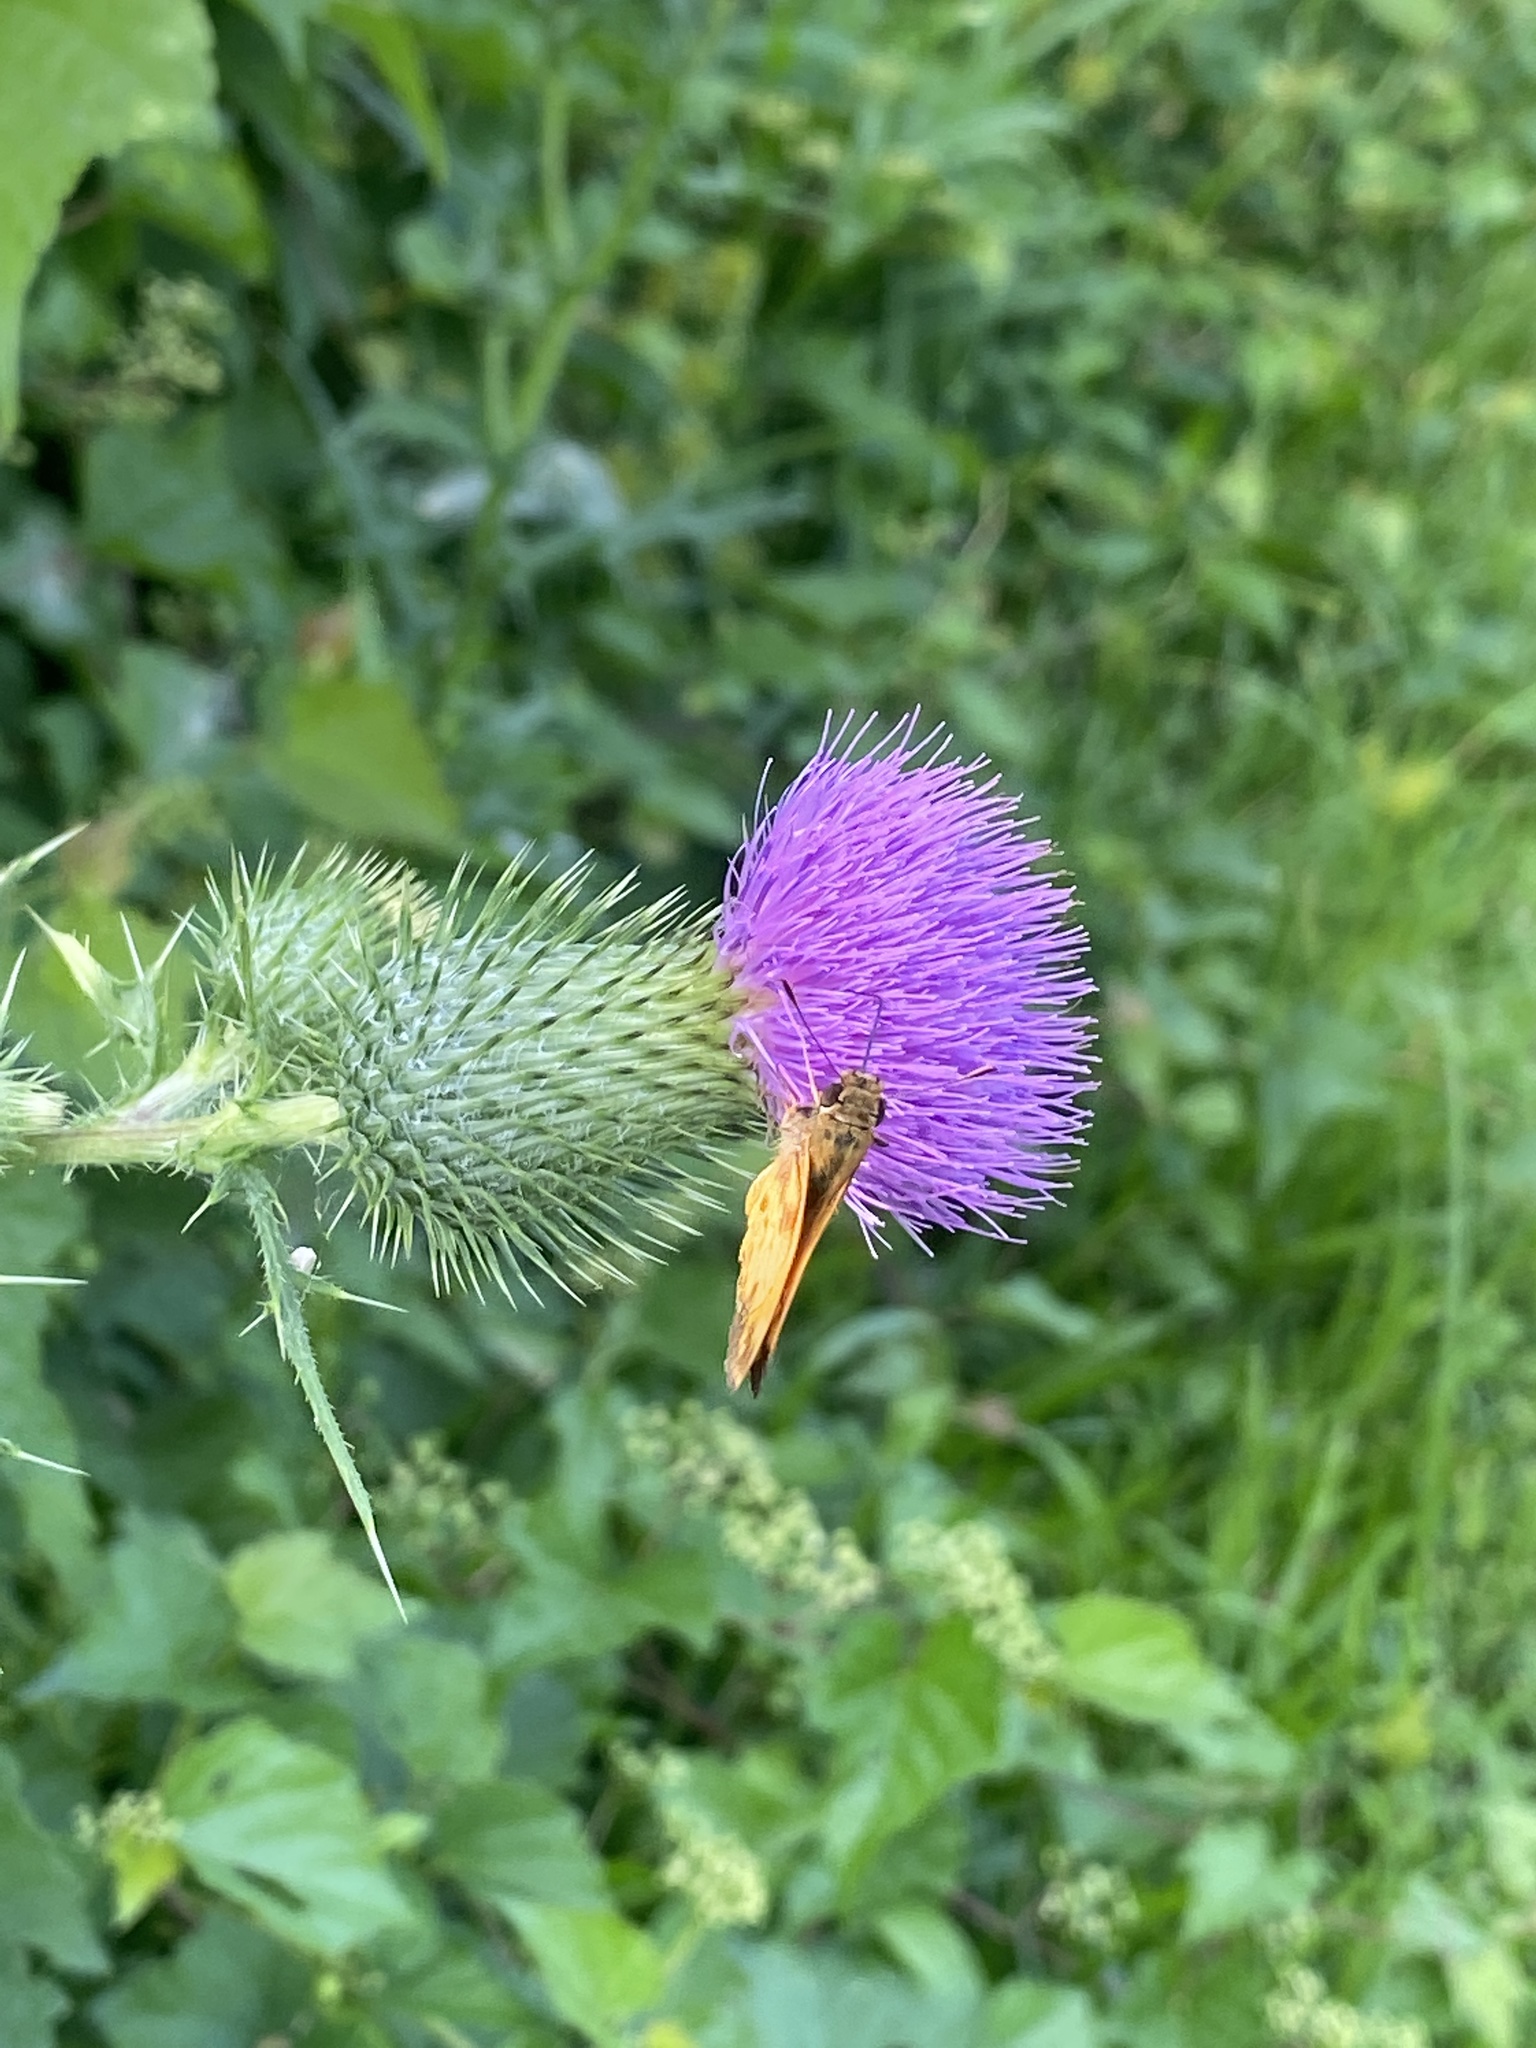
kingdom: Plantae
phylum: Tracheophyta
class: Magnoliopsida
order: Asterales
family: Asteraceae
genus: Cirsium
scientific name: Cirsium vulgare
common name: Bull thistle
